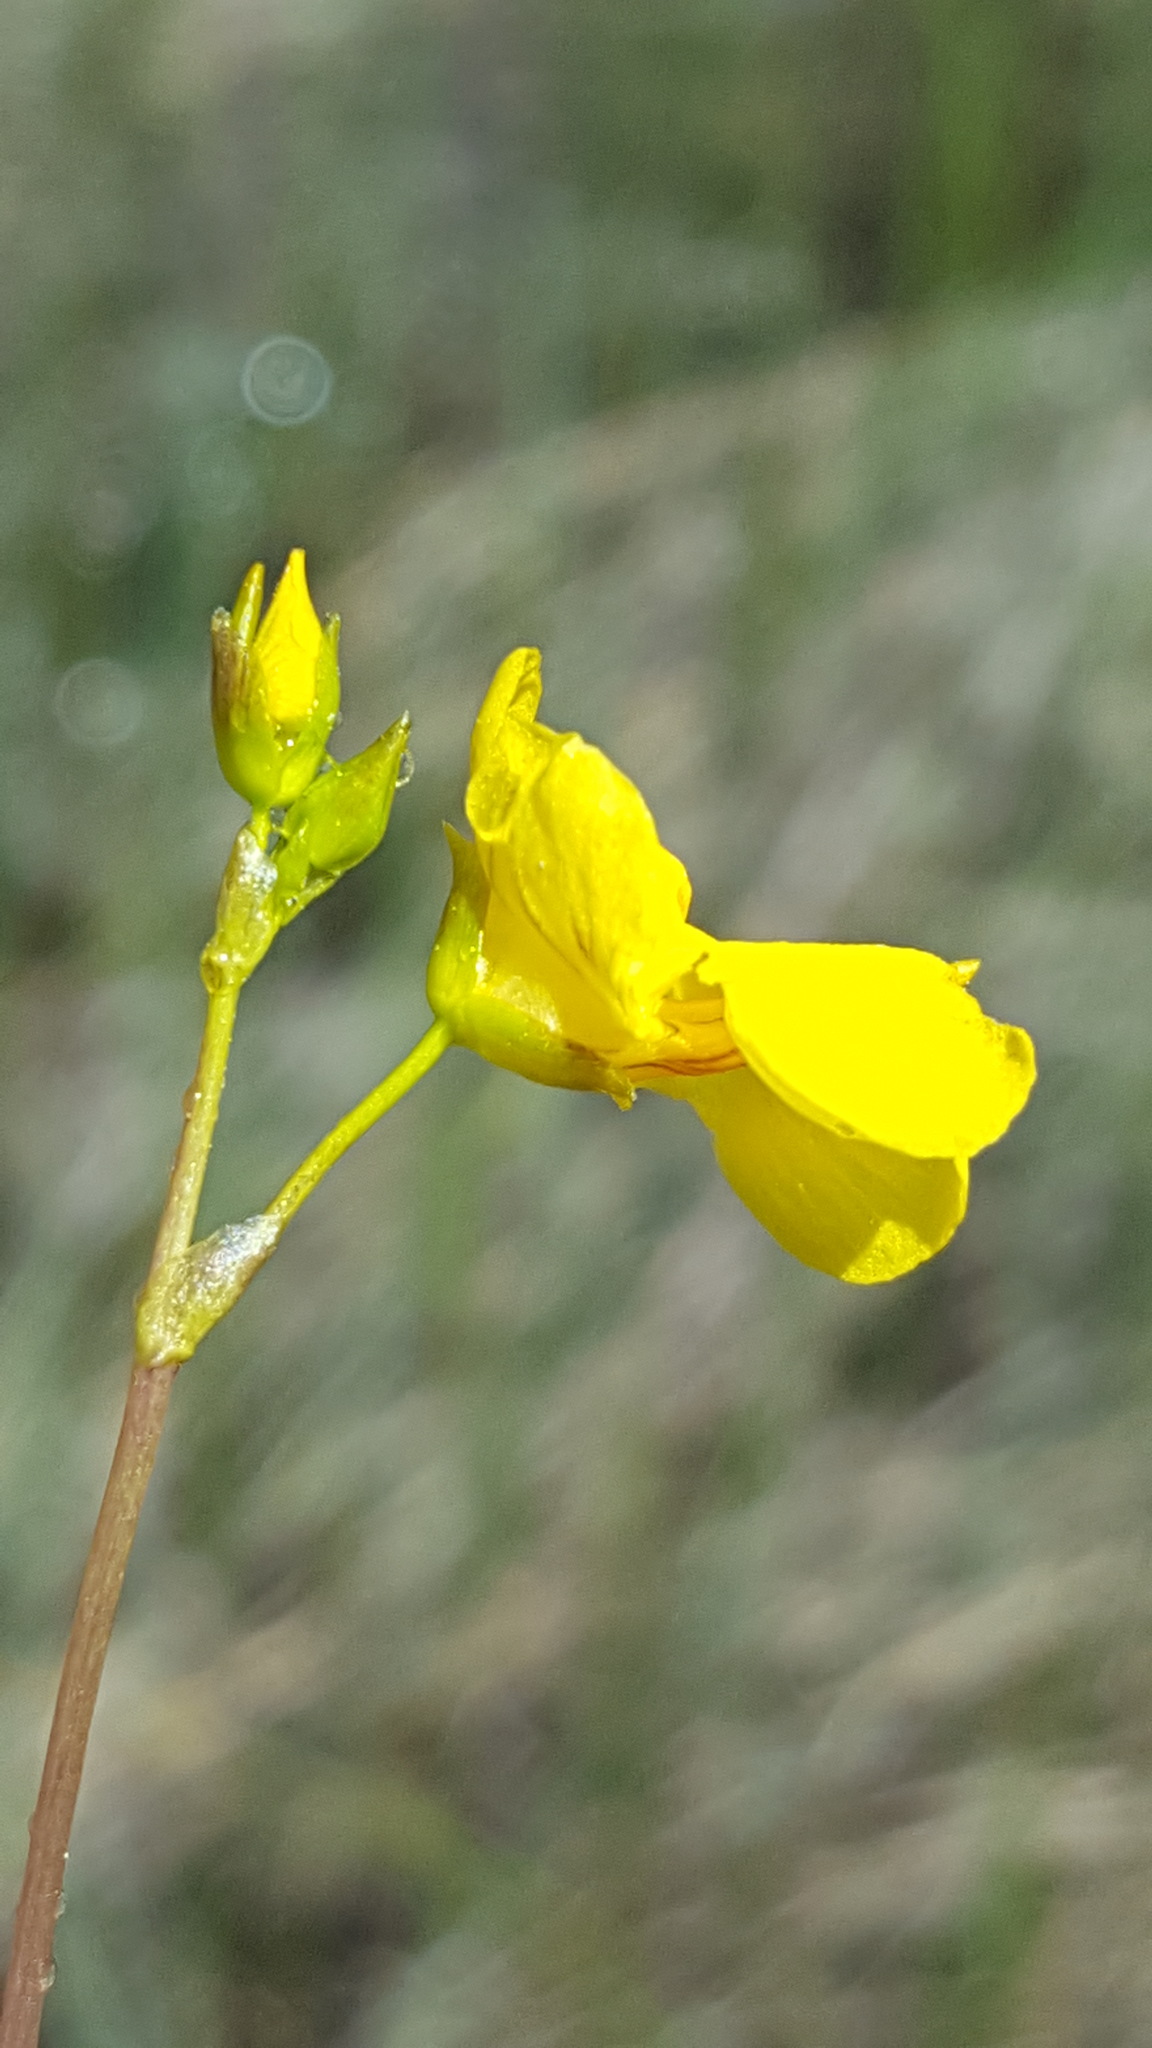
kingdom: Plantae
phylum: Tracheophyta
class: Magnoliopsida
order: Lamiales
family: Lentibulariaceae
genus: Utricularia
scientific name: Utricularia intermedia
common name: Intermediate bladderwort
